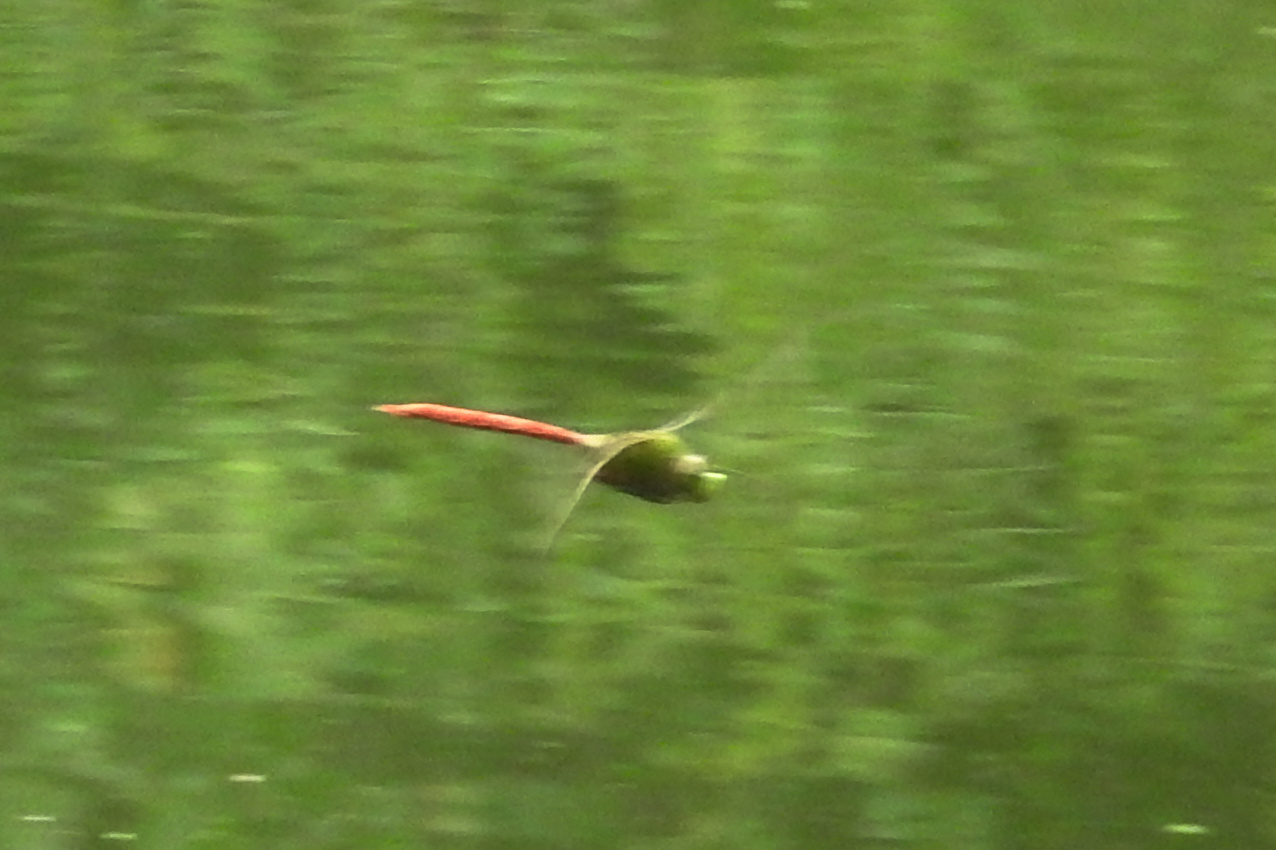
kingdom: Animalia
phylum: Arthropoda
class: Insecta
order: Odonata
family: Aeshnidae
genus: Anax
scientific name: Anax longipes
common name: Comet darner
